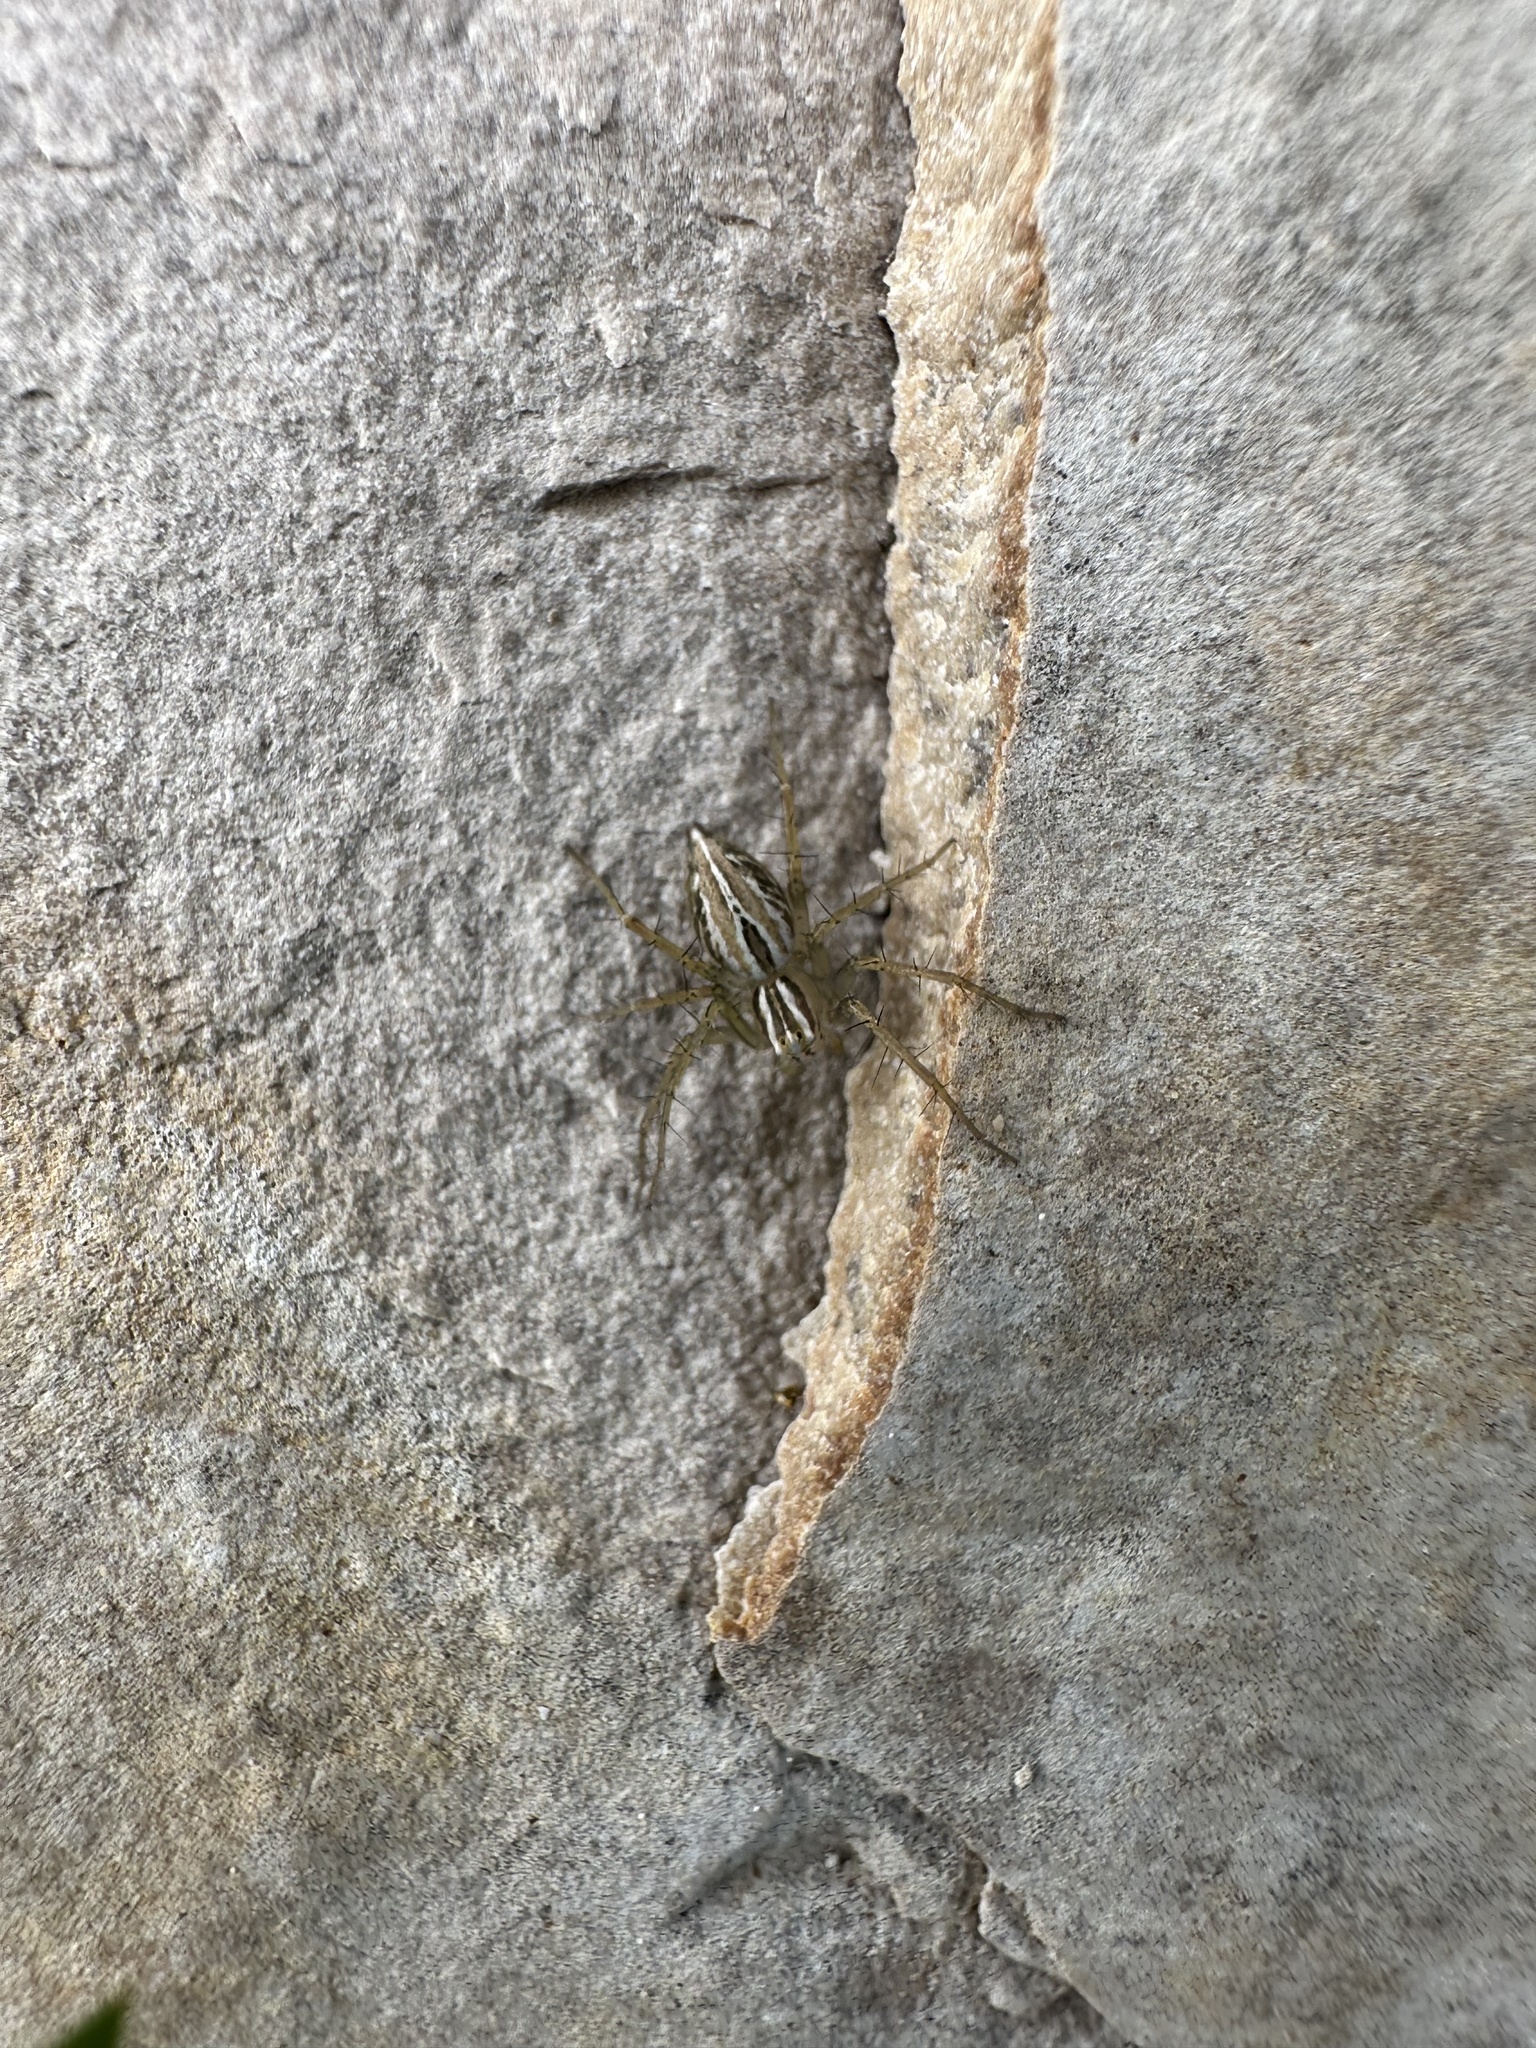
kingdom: Animalia
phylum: Arthropoda
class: Arachnida
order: Araneae
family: Oxyopidae
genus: Oxyopes
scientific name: Oxyopes salticus
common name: Lynx spiders
